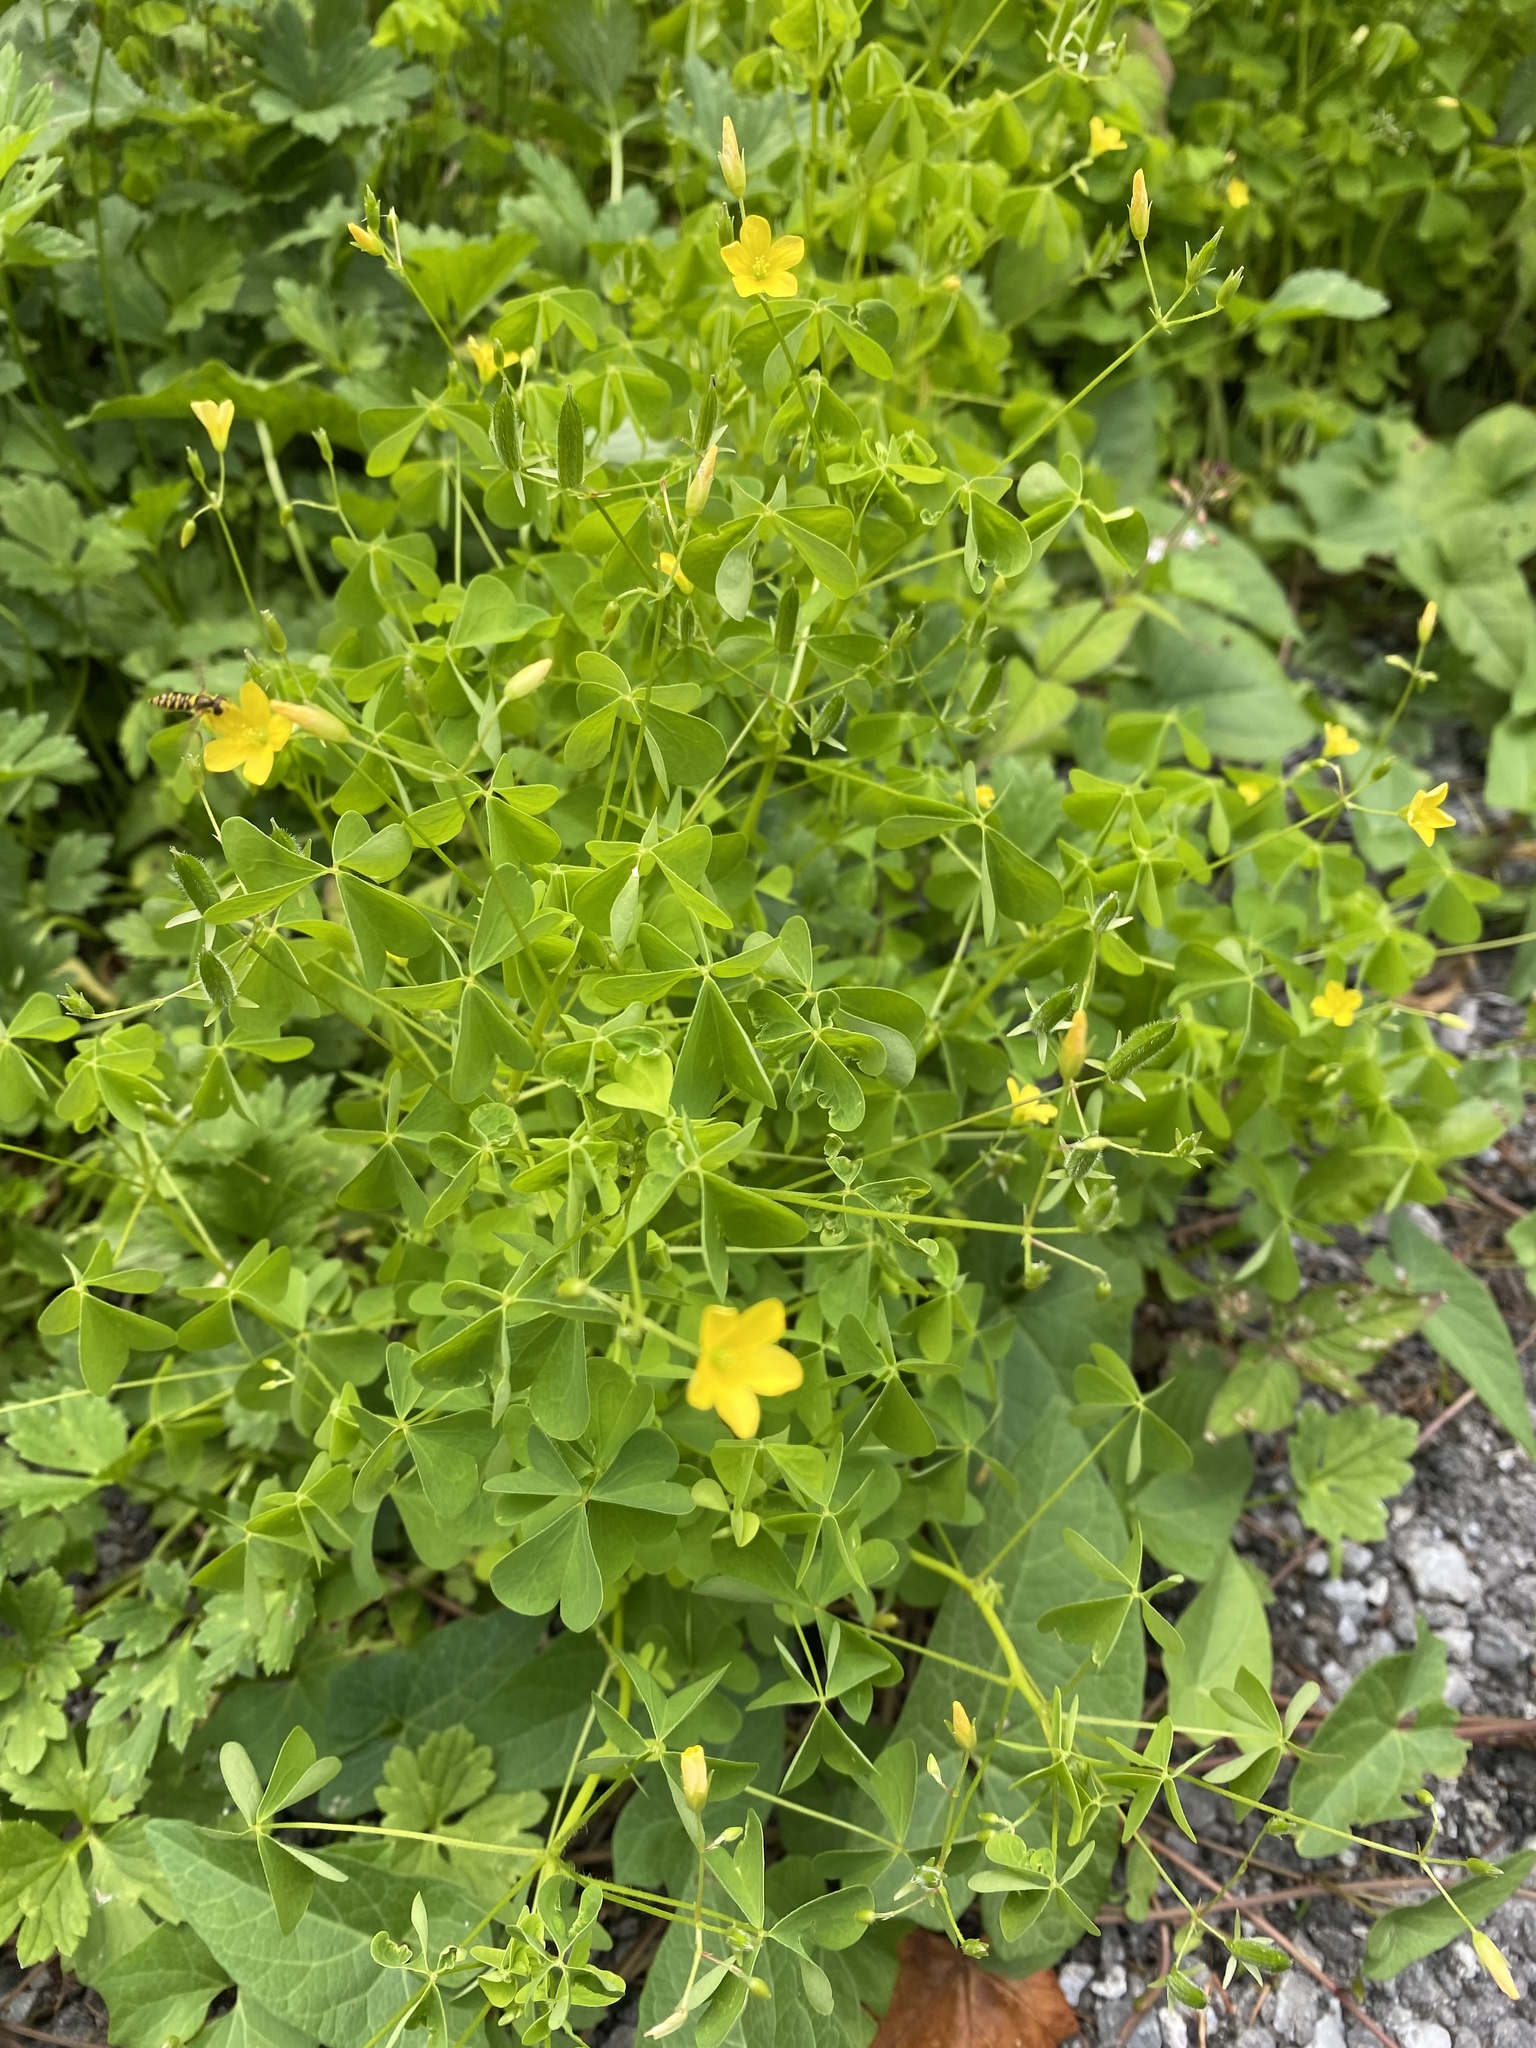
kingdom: Plantae
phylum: Tracheophyta
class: Magnoliopsida
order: Oxalidales
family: Oxalidaceae
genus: Oxalis
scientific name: Oxalis stricta
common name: Upright yellow-sorrel
